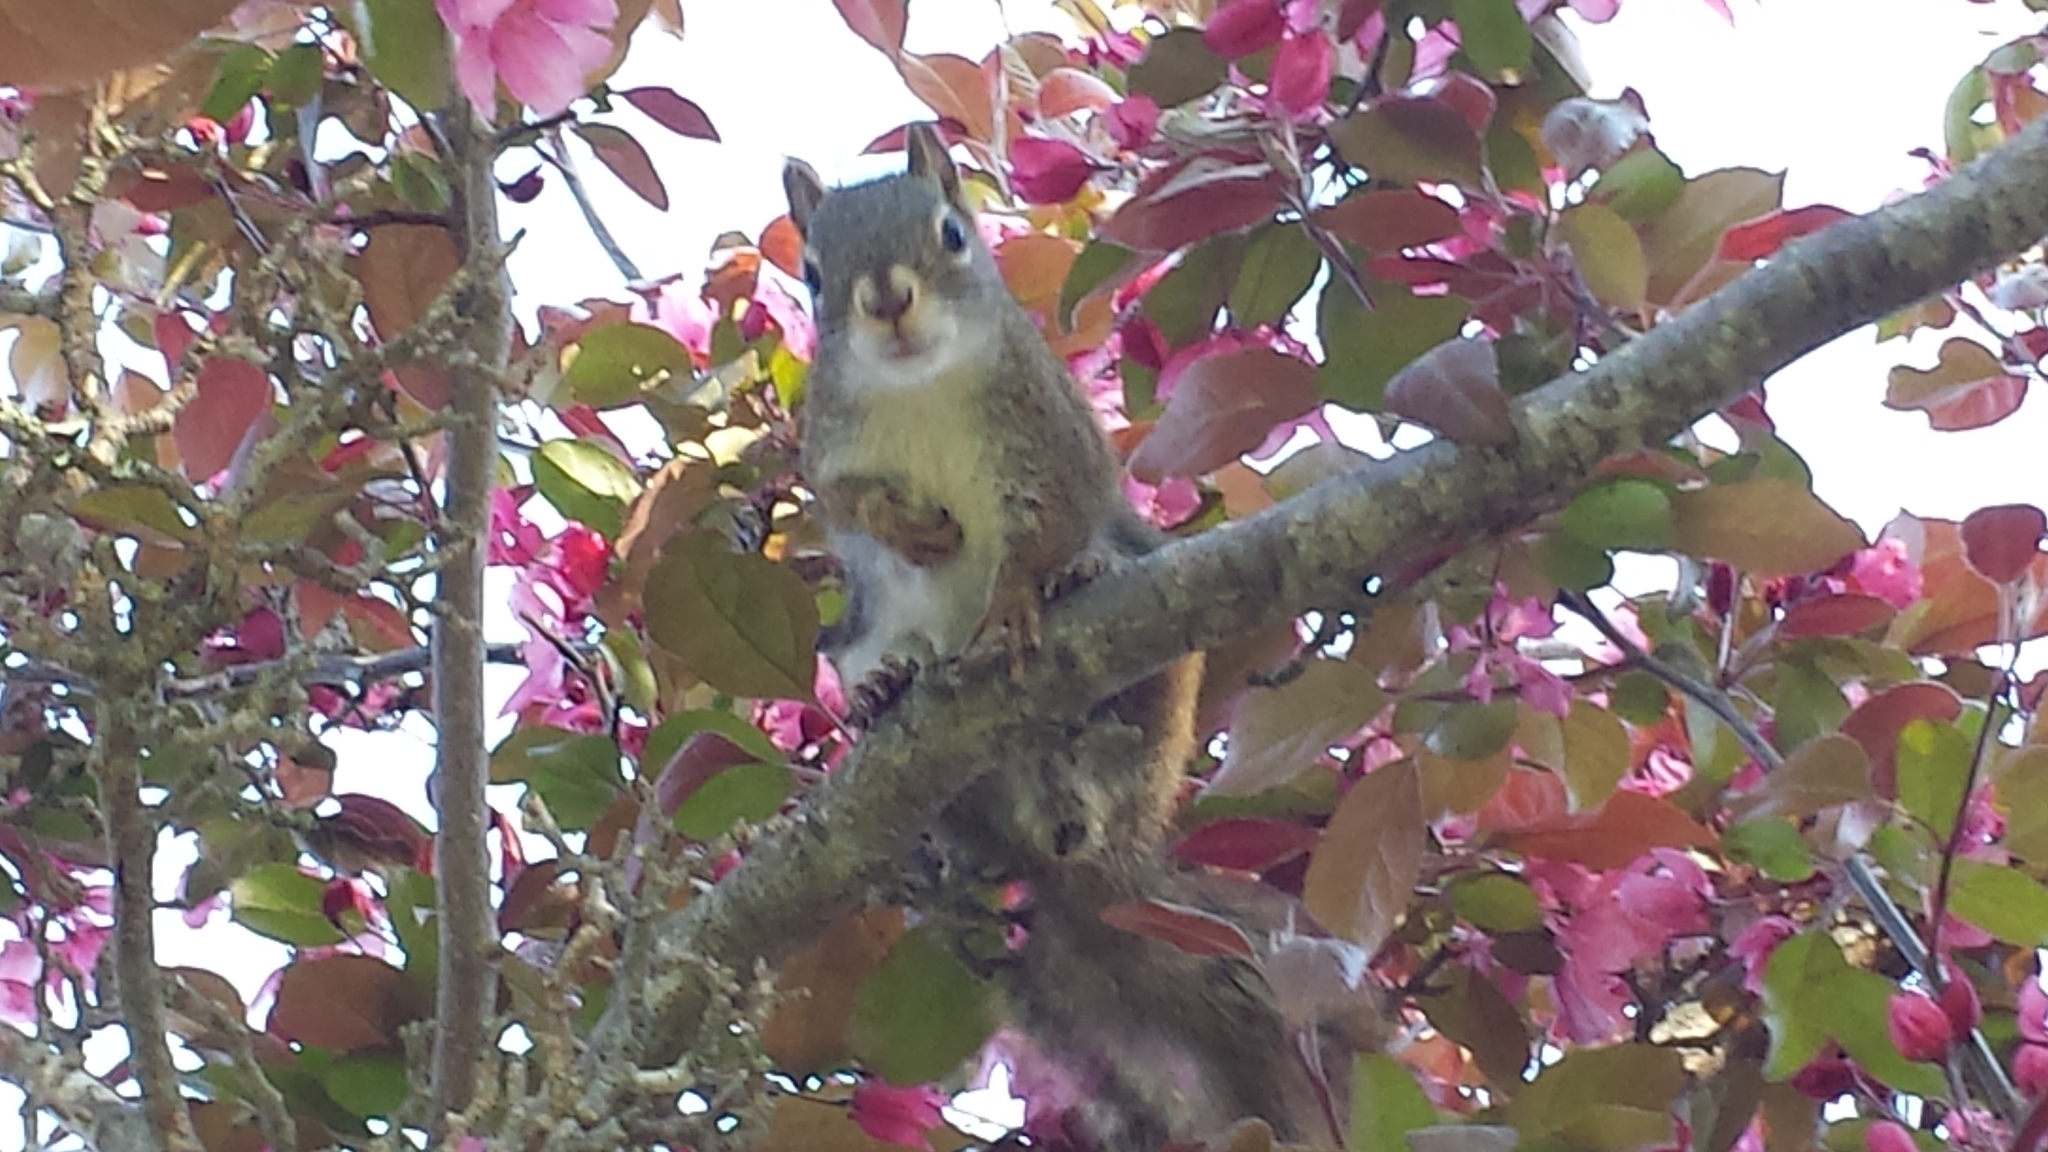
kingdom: Animalia
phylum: Chordata
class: Mammalia
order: Rodentia
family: Sciuridae
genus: Tamiasciurus
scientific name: Tamiasciurus hudsonicus
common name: Red squirrel
